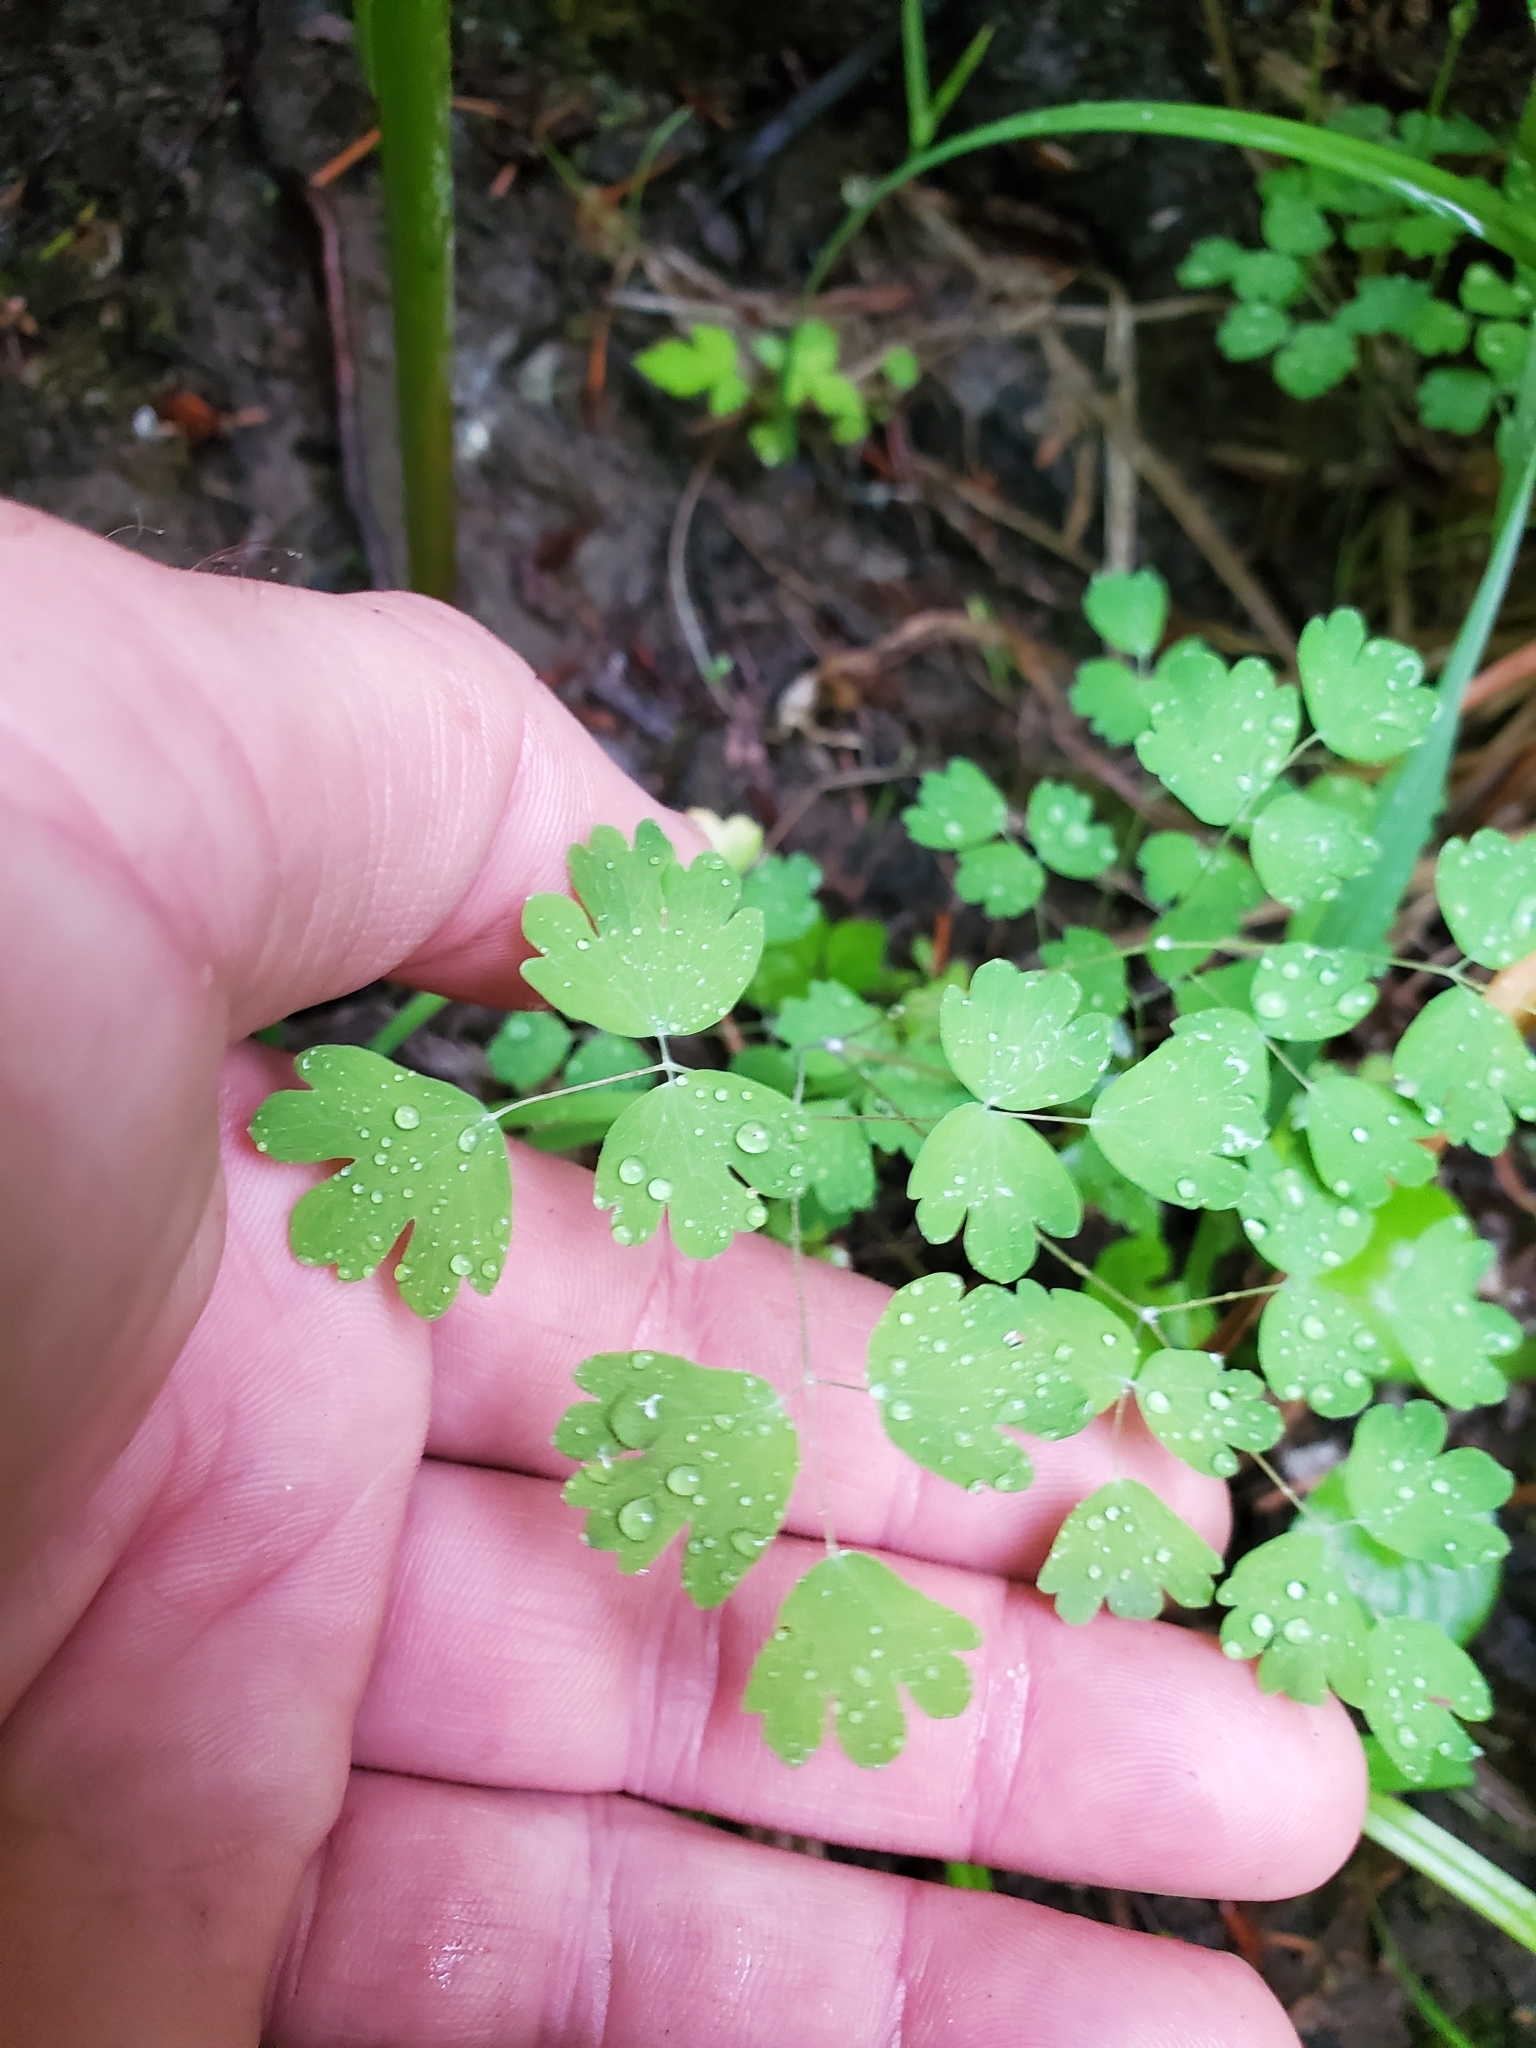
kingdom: Plantae
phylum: Tracheophyta
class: Magnoliopsida
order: Ranunculales
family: Ranunculaceae
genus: Thalictrum
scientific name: Thalictrum occidentale
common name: Western meadow-rue
